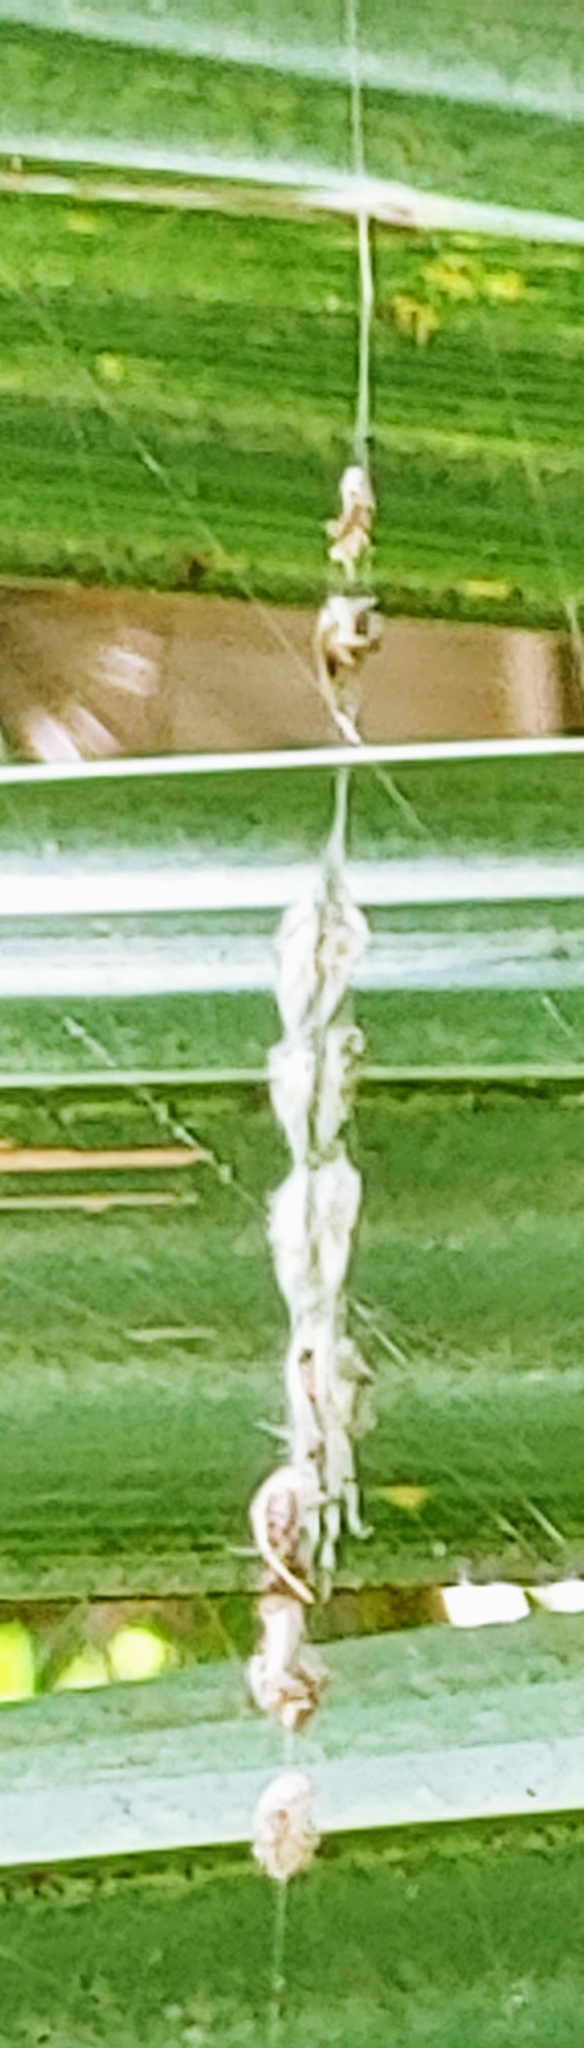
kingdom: Animalia
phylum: Arthropoda
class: Arachnida
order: Araneae
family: Araneidae
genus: Allocyclosa
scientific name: Allocyclosa bifurca
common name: Orb weavers
